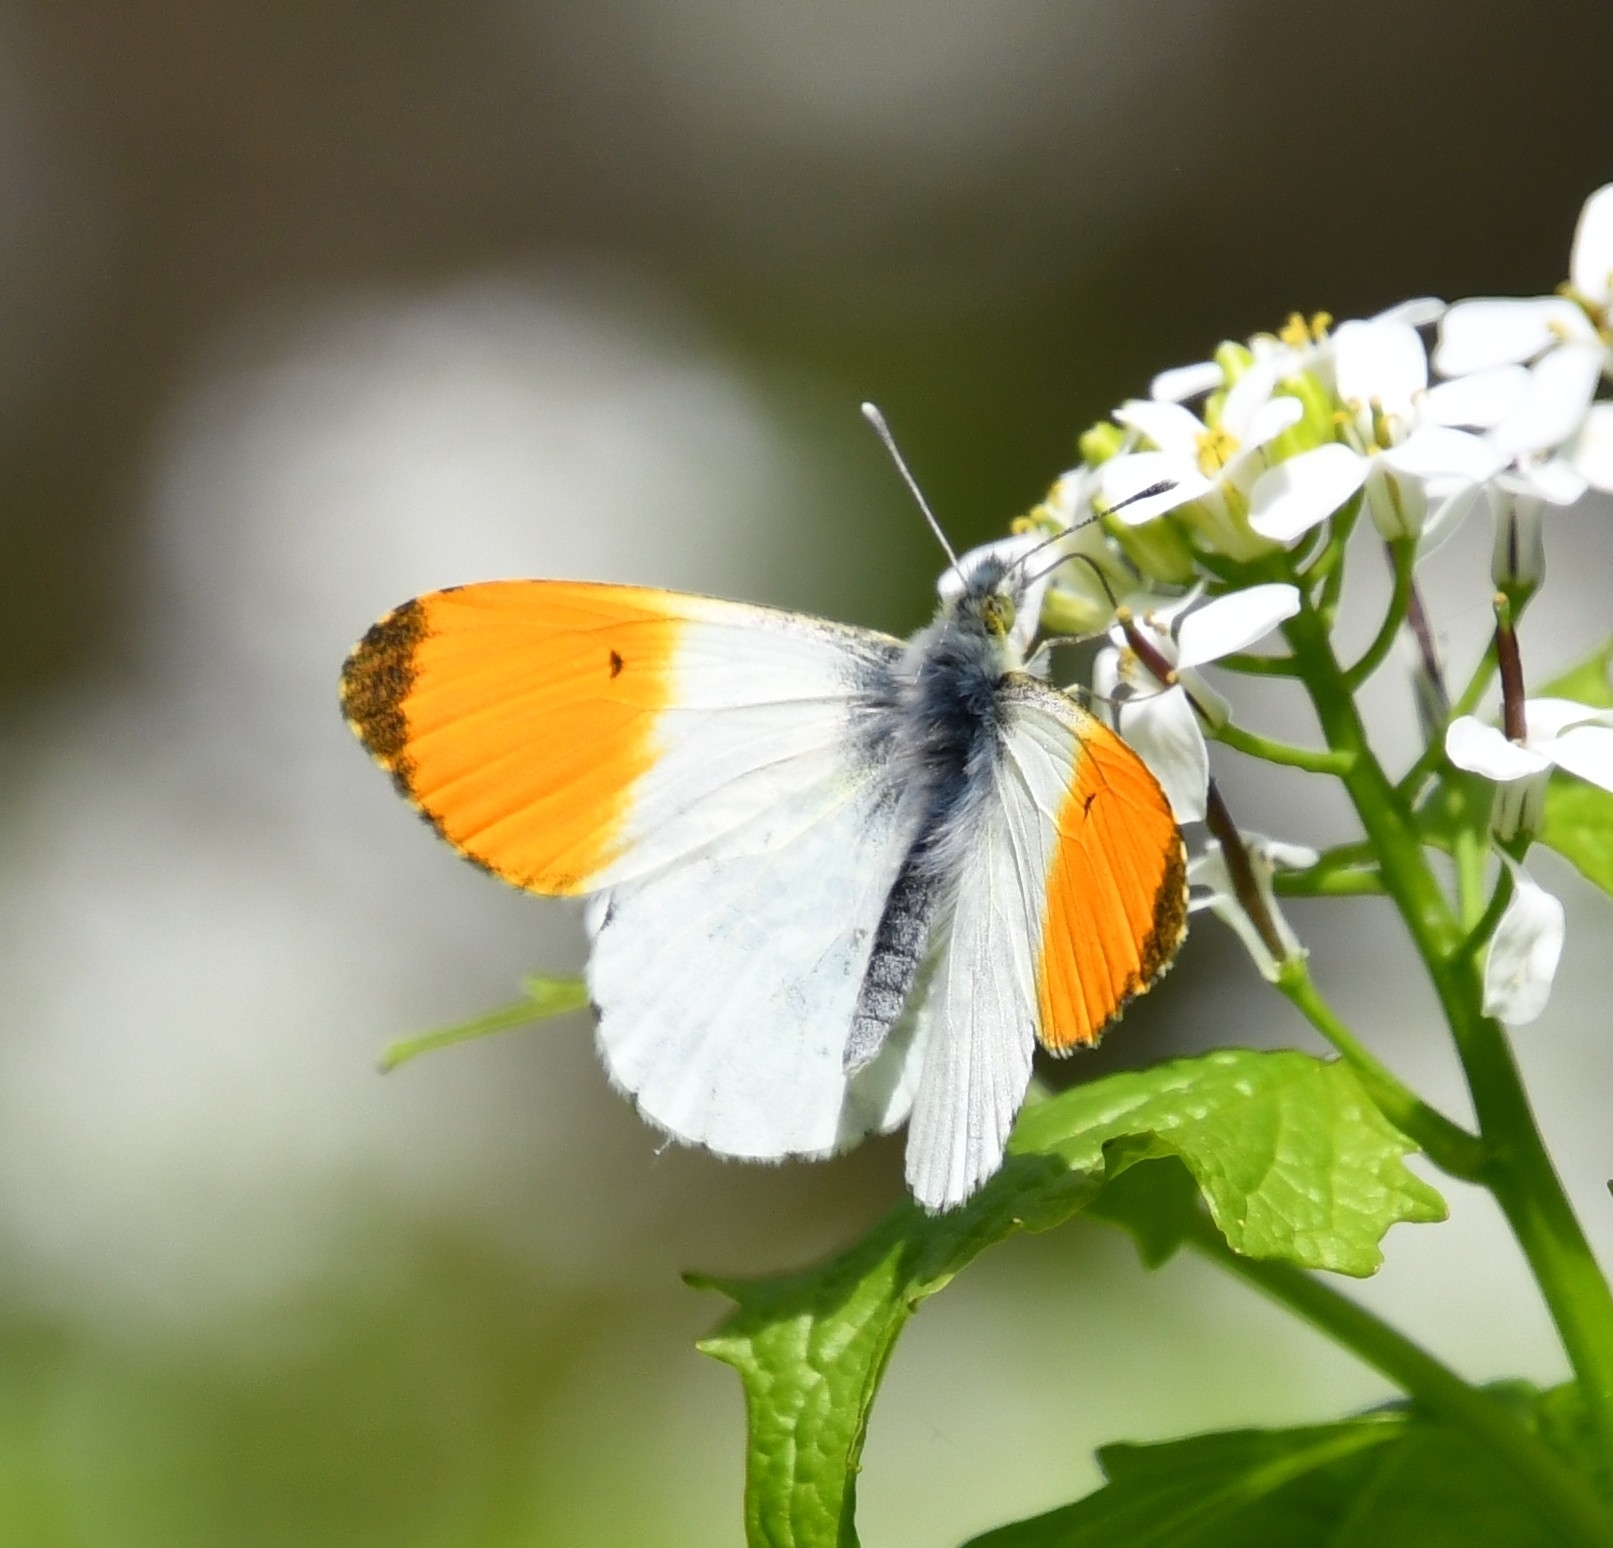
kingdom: Animalia
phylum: Arthropoda
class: Insecta
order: Lepidoptera
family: Pieridae
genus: Anthocharis
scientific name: Anthocharis cardamines
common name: Orange-tip
